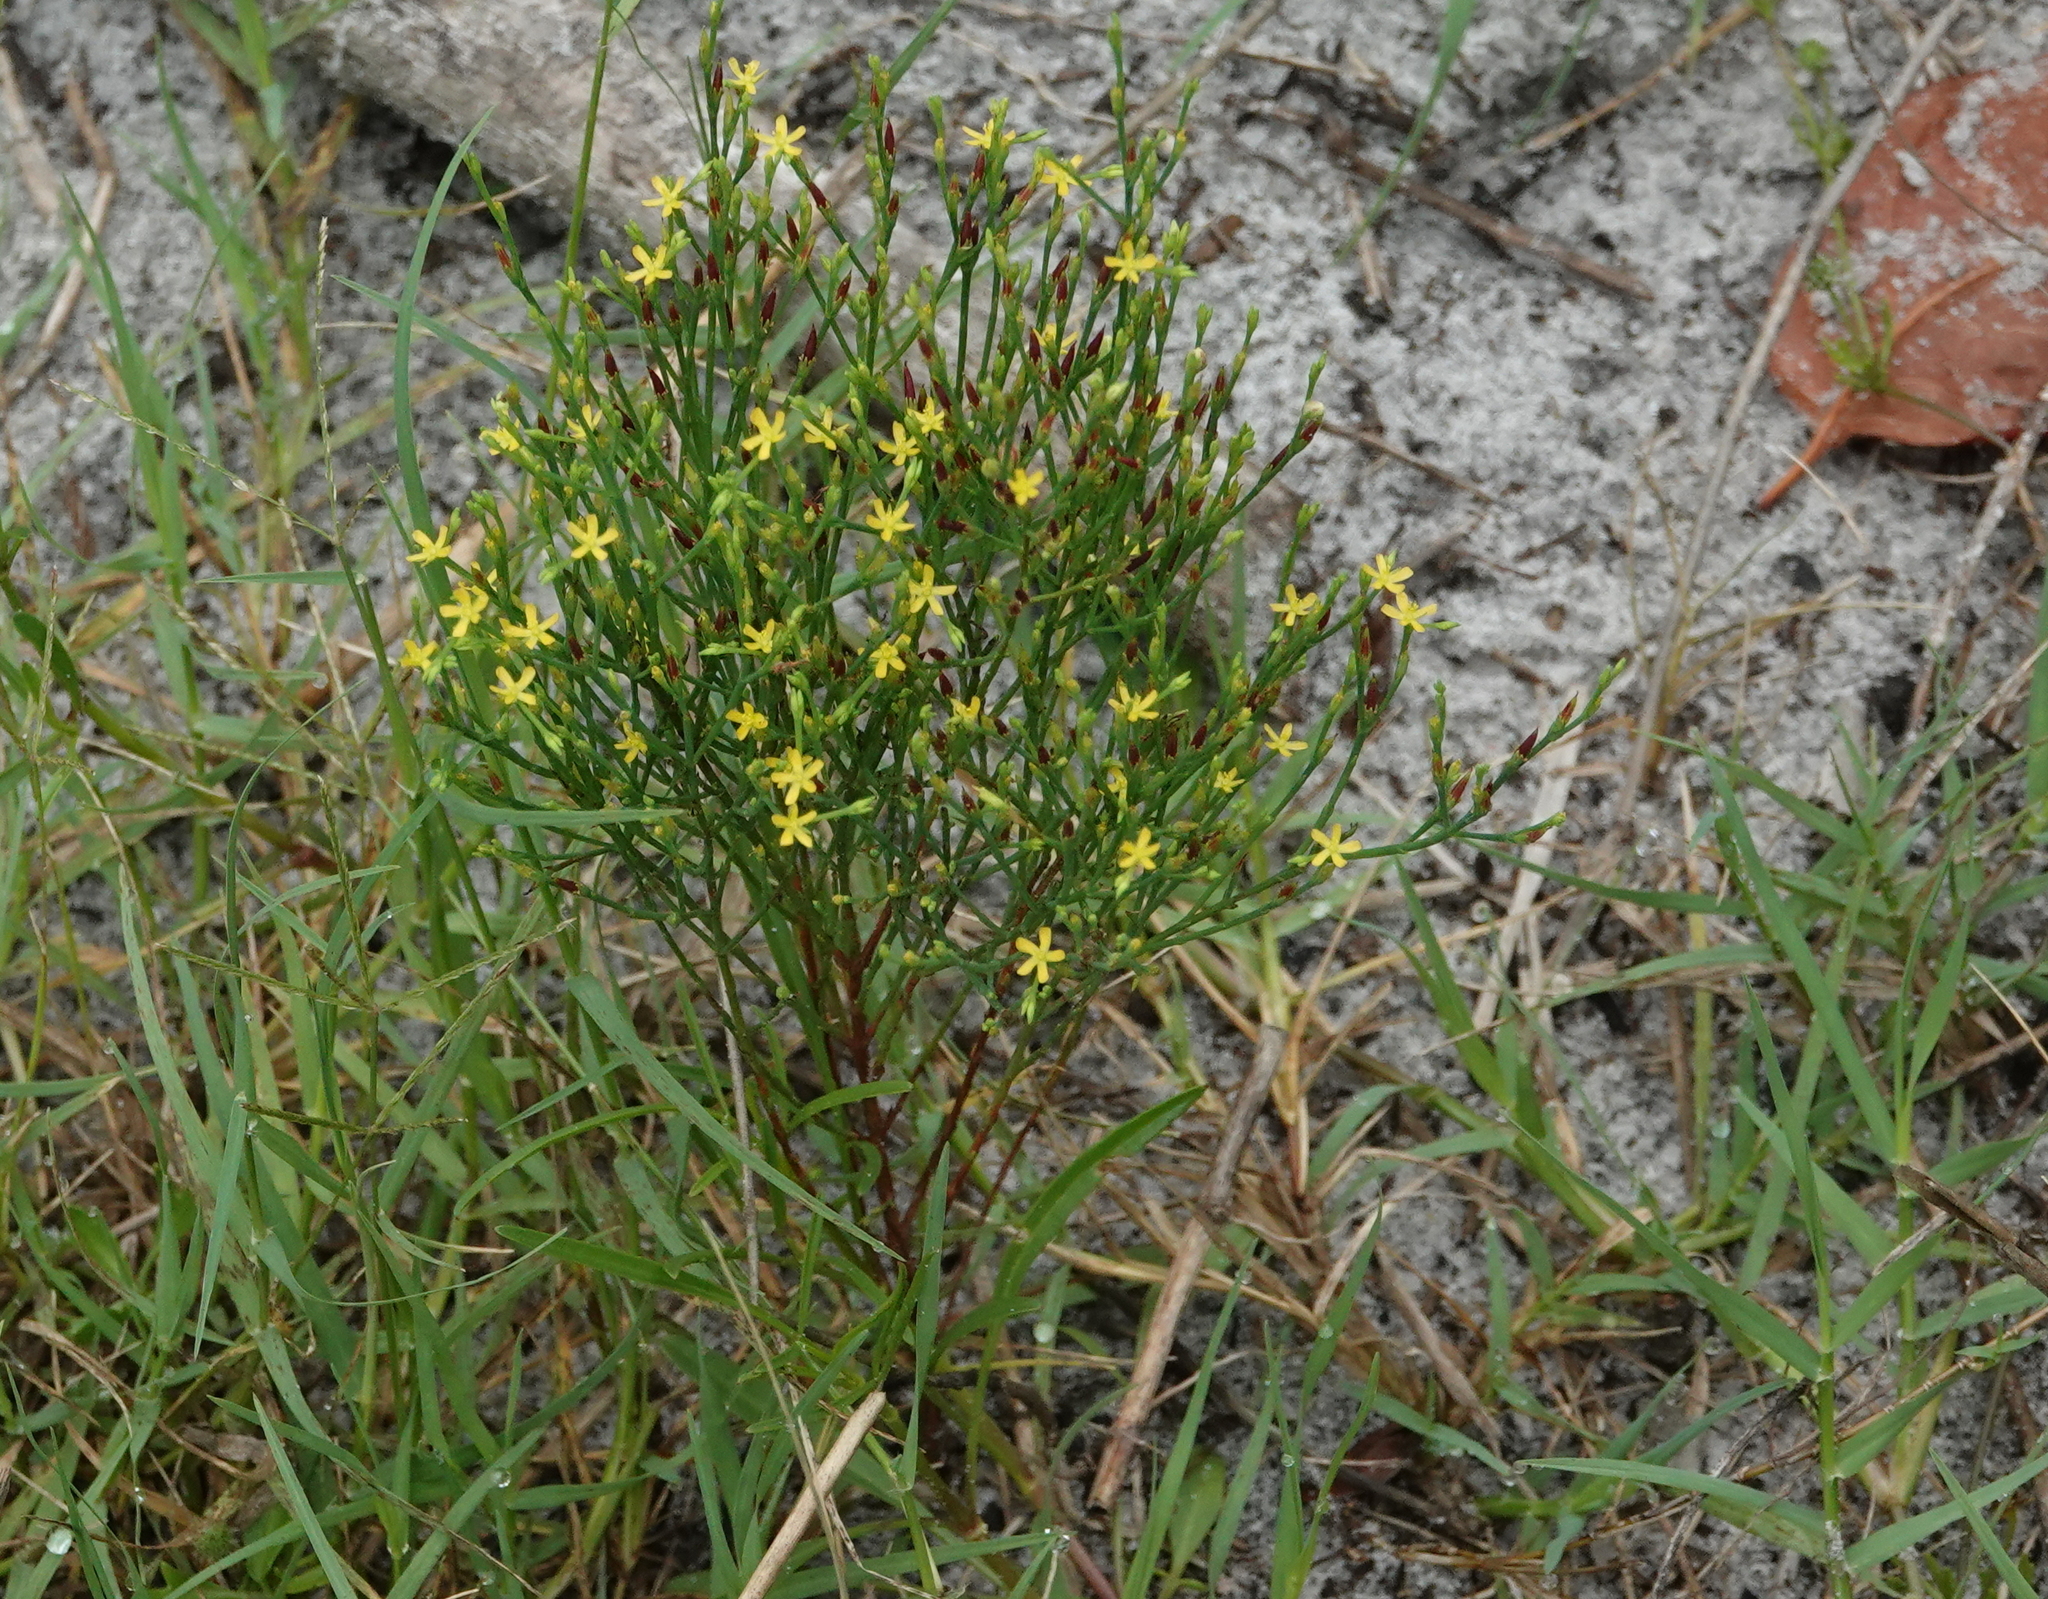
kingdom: Plantae
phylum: Tracheophyta
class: Magnoliopsida
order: Malpighiales
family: Hypericaceae
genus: Hypericum
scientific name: Hypericum gentianoides
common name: Gentian-leaved st. john's-wort
